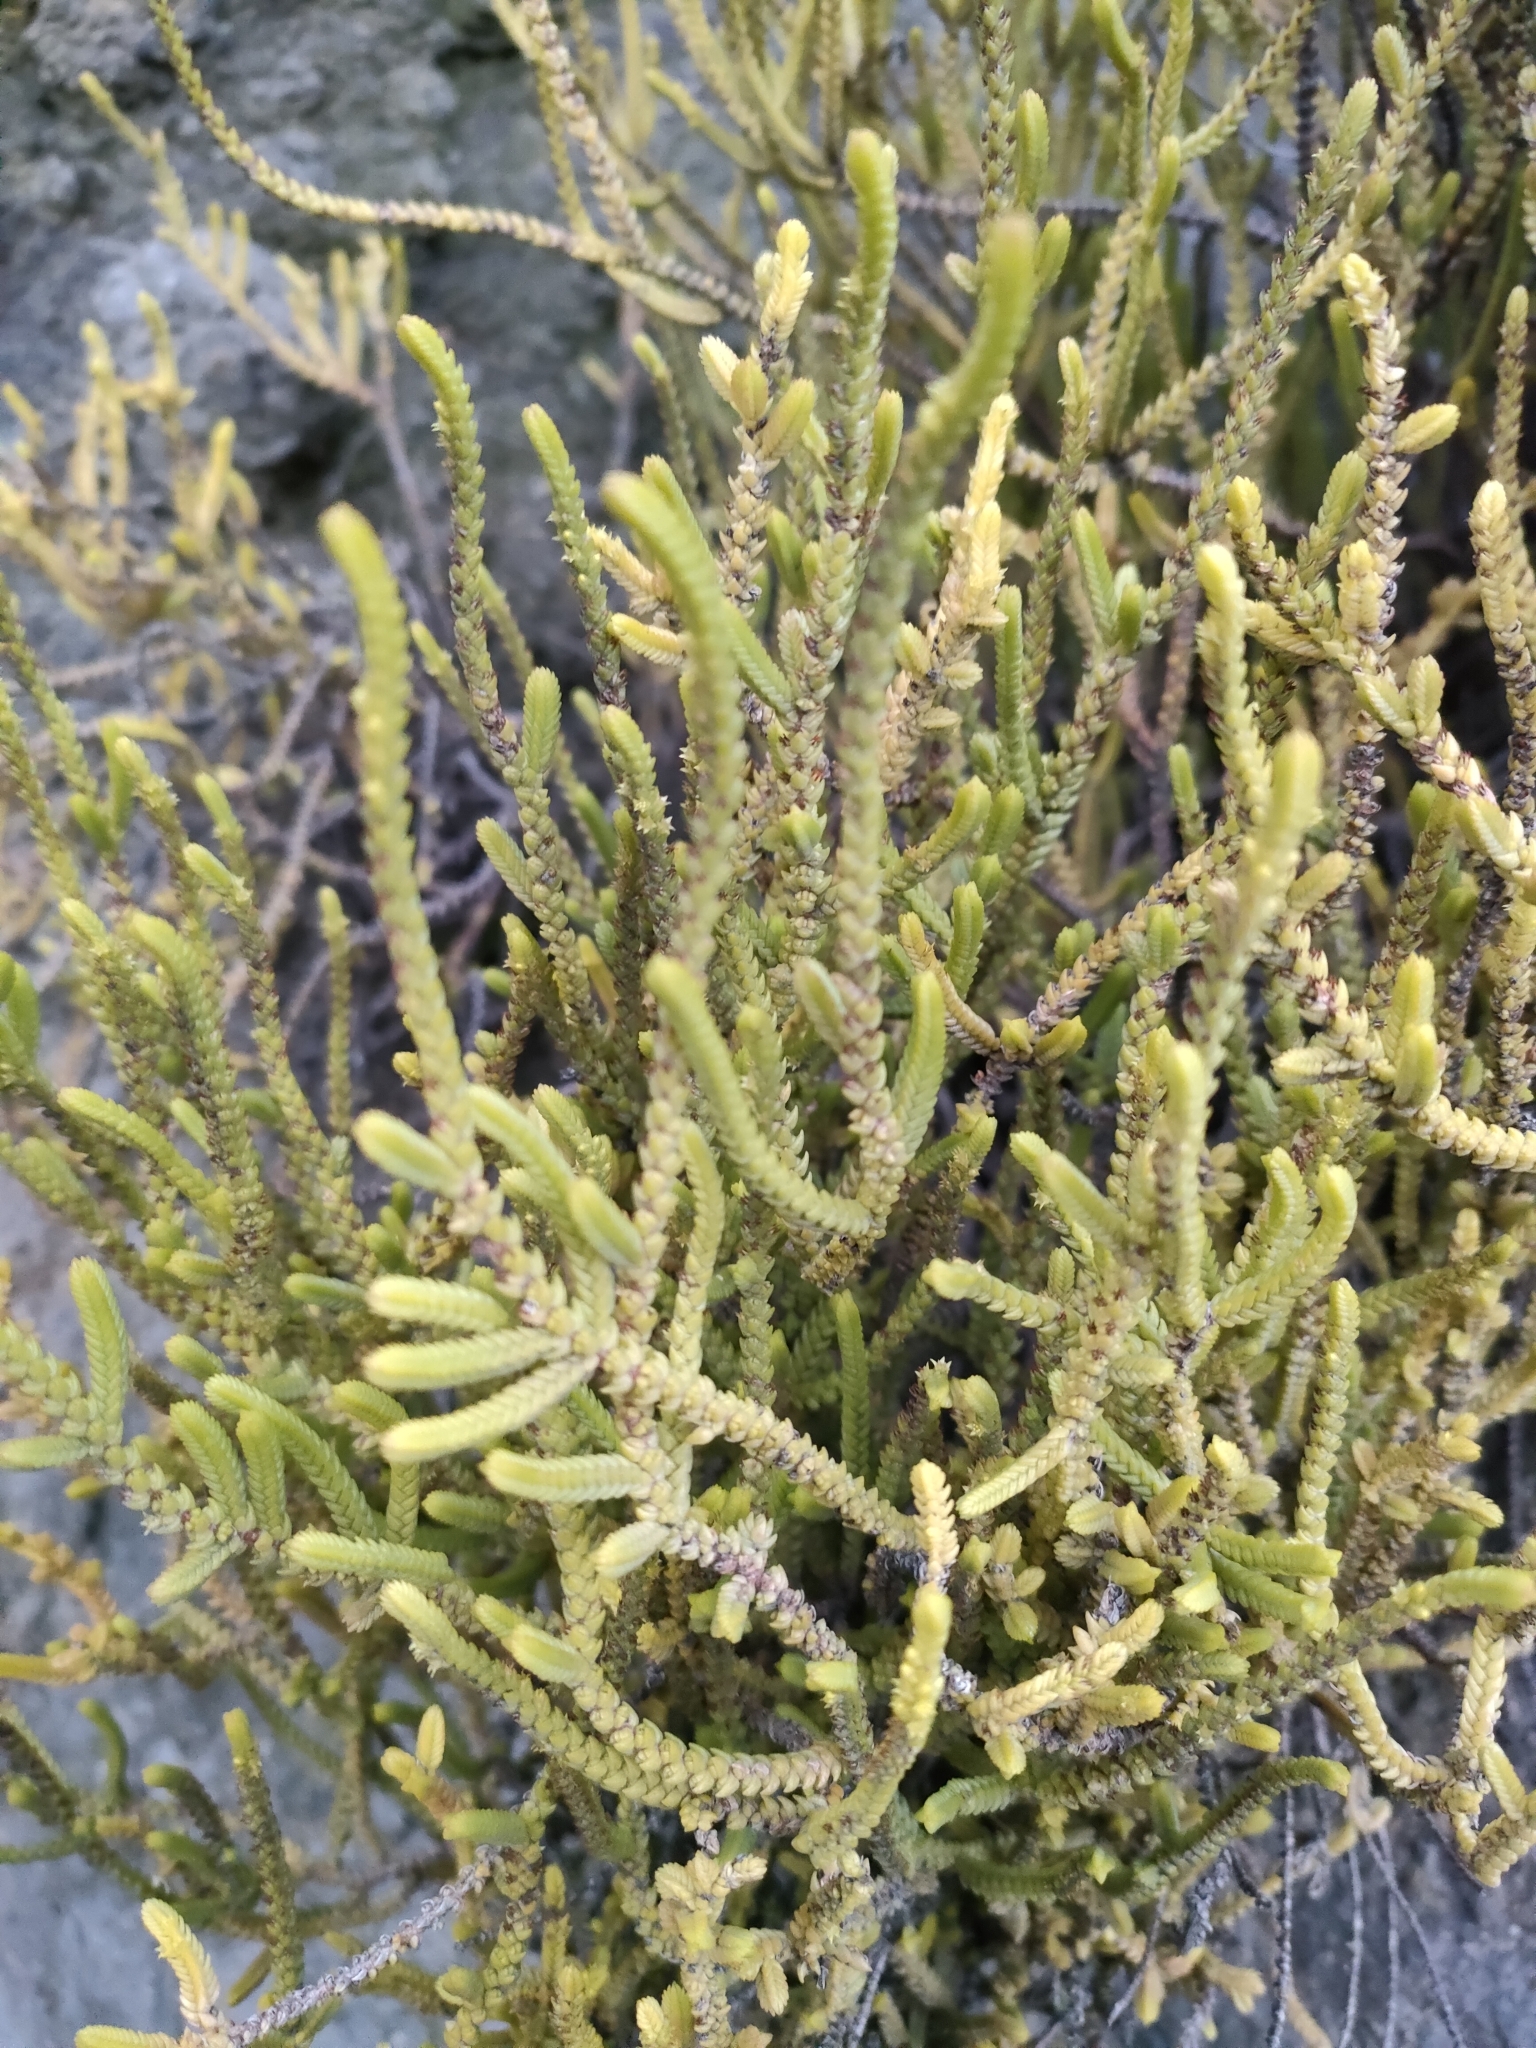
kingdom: Plantae
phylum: Tracheophyta
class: Magnoliopsida
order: Saxifragales
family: Crassulaceae
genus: Crassula
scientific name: Crassula muscosa
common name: Toy-cypress
